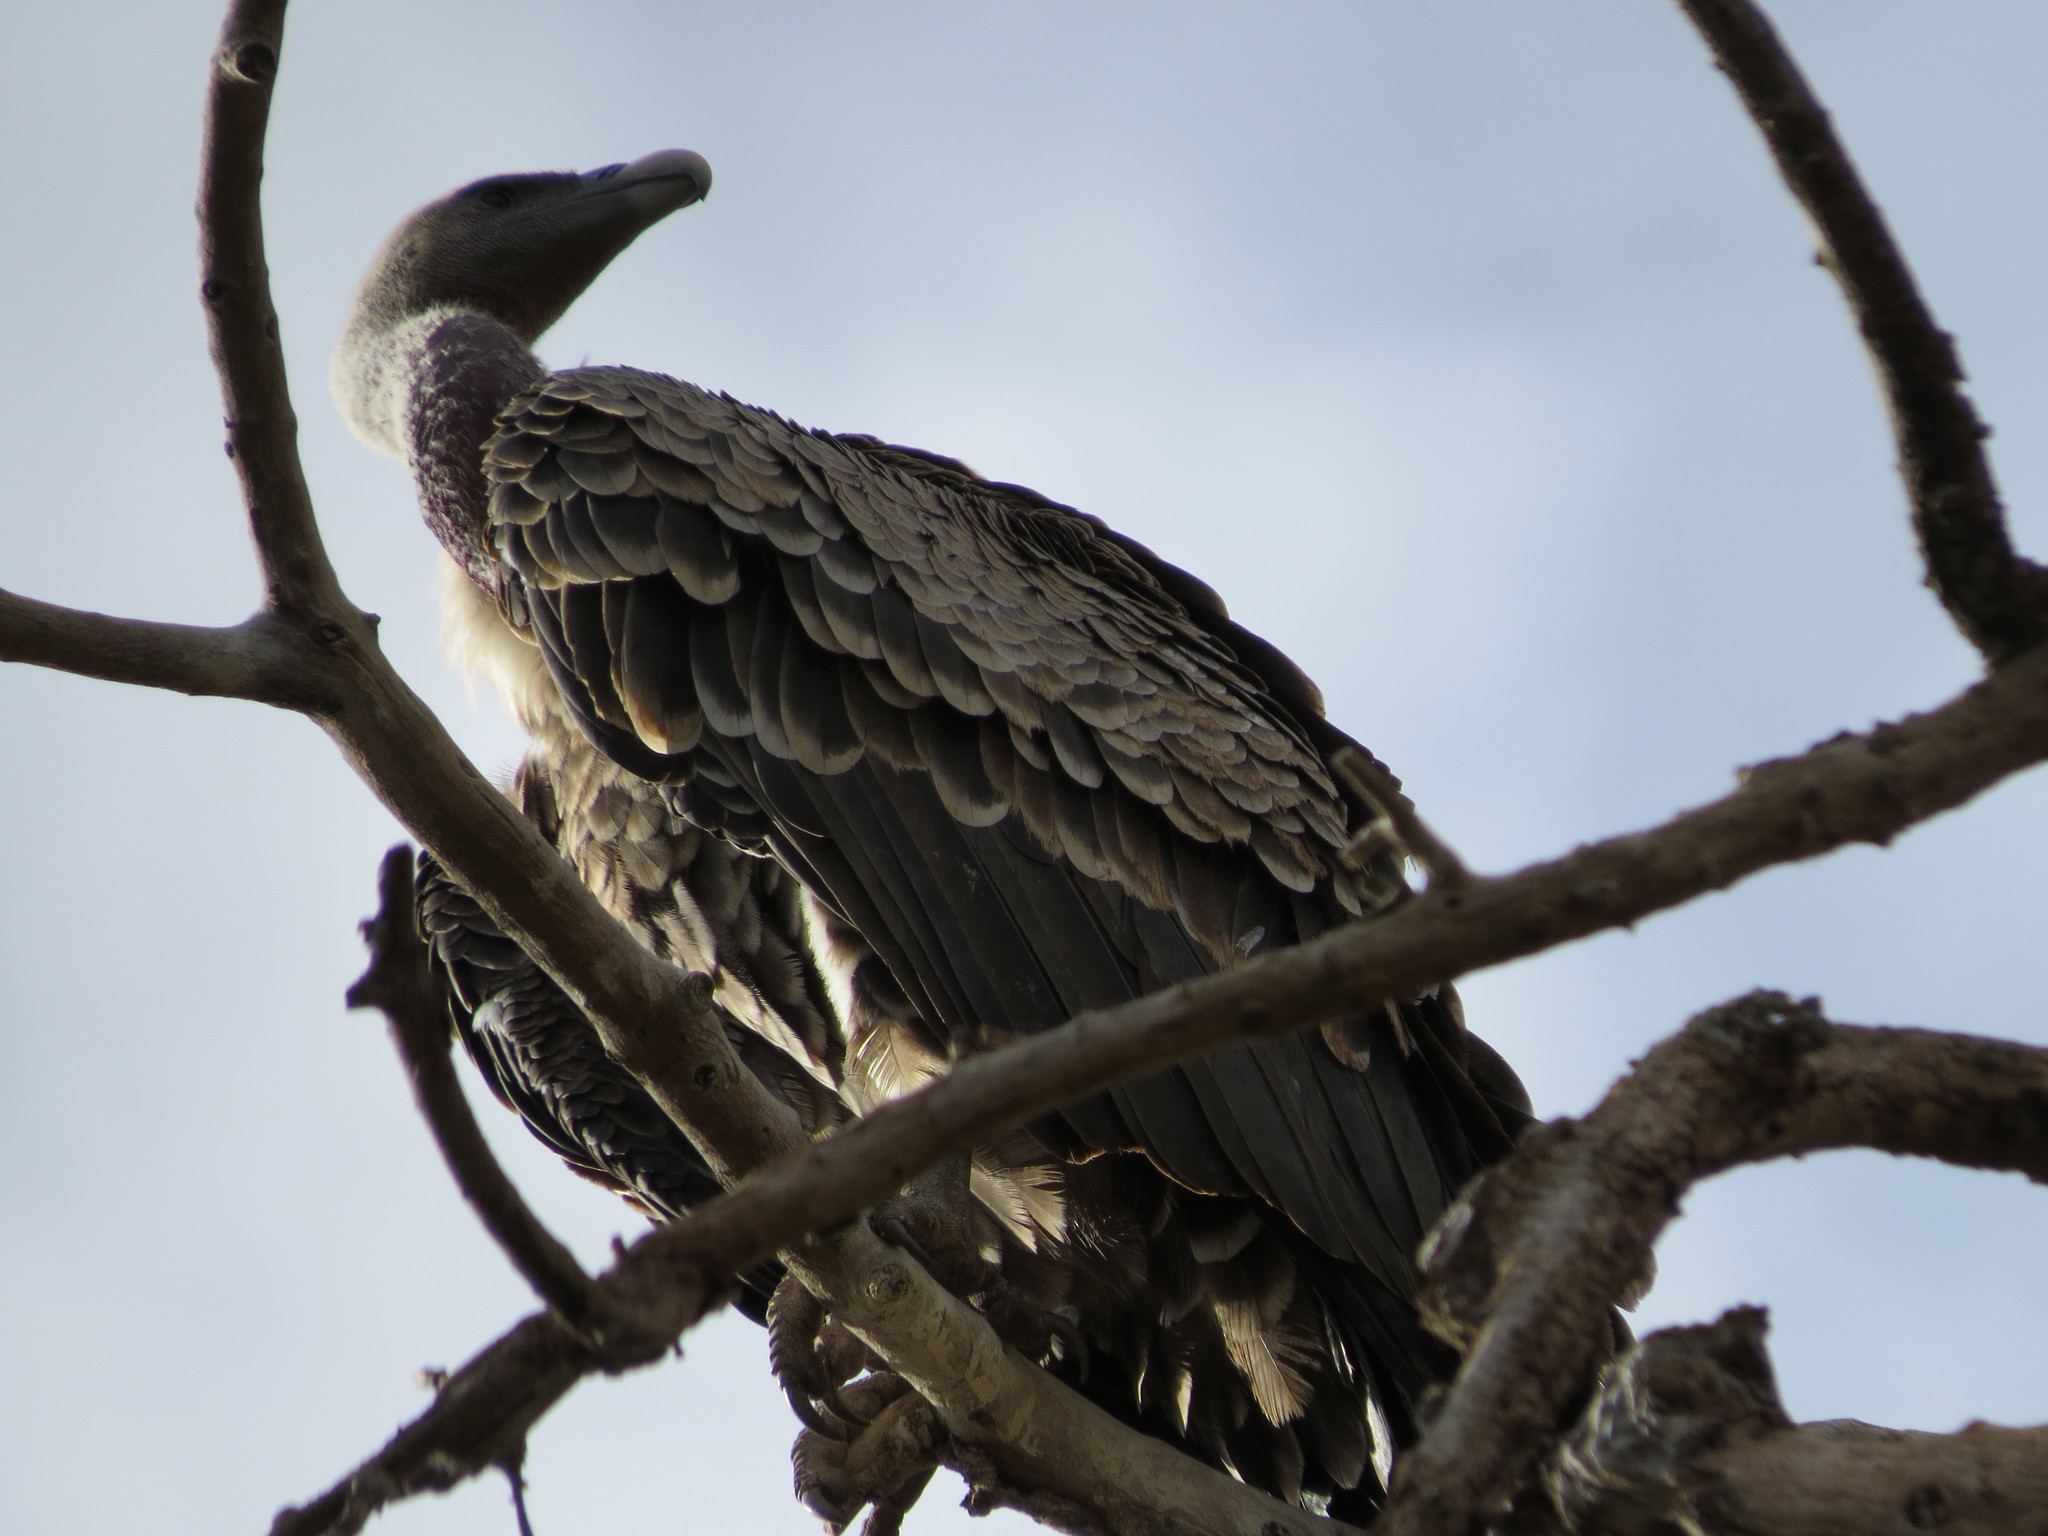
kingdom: Animalia
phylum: Chordata
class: Aves
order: Accipitriformes
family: Accipitridae
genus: Gyps
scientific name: Gyps rueppellii
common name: Rüppell's vulture
